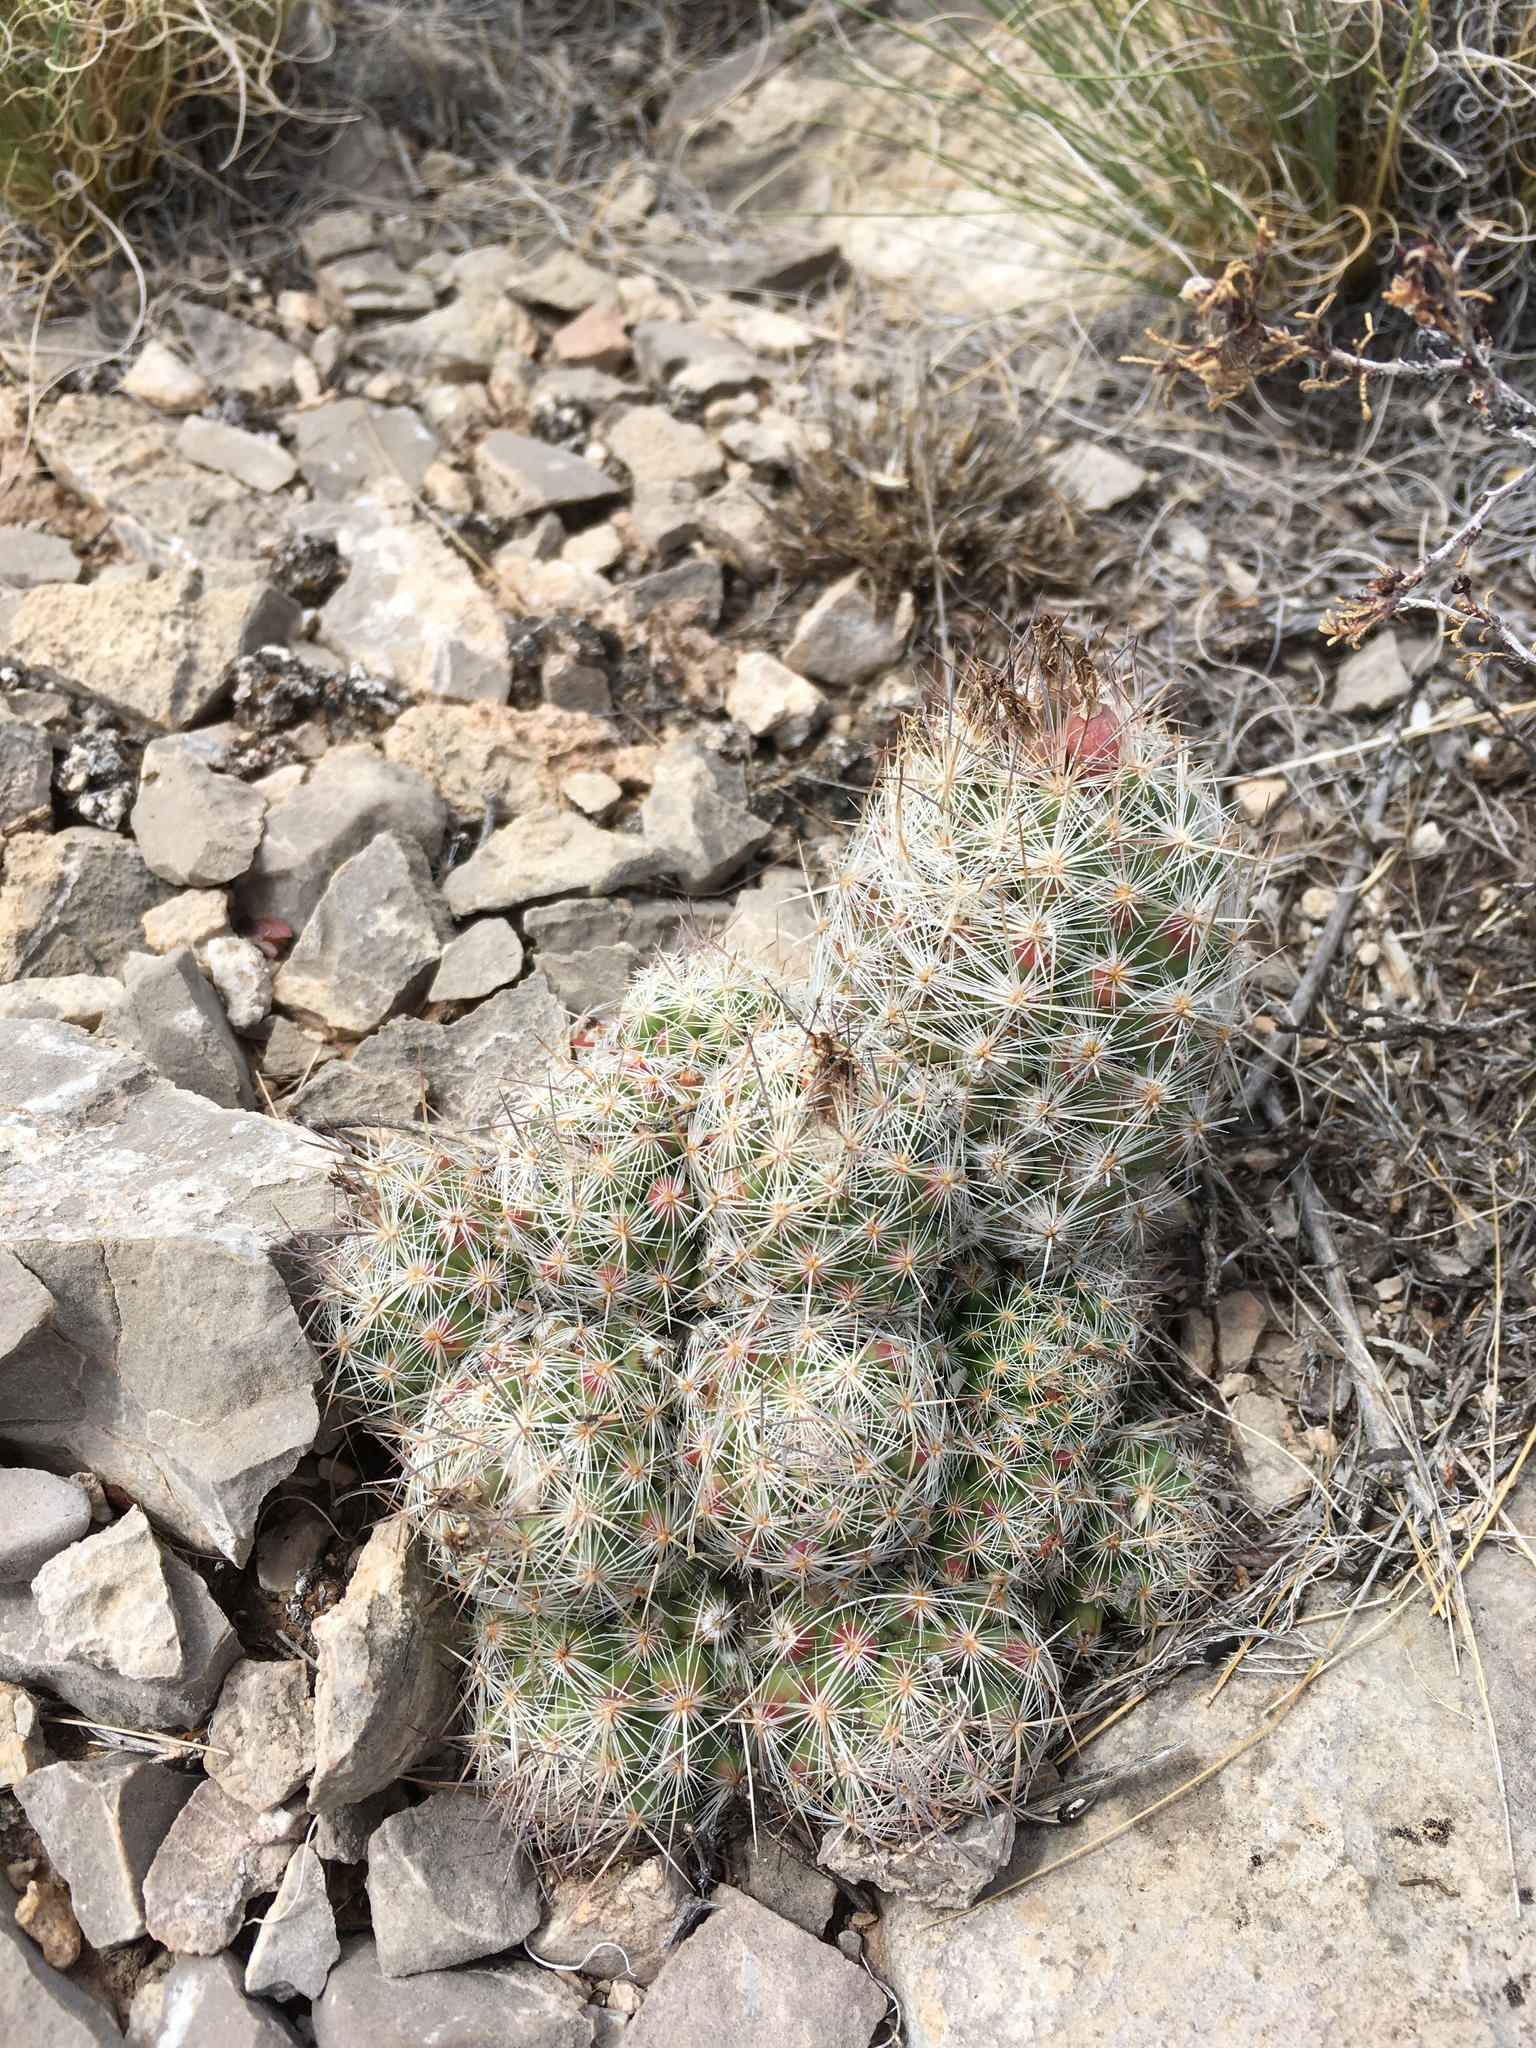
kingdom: Plantae
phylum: Tracheophyta
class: Magnoliopsida
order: Caryophyllales
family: Cactaceae
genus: Pelecyphora
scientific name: Pelecyphora tuberculosa
